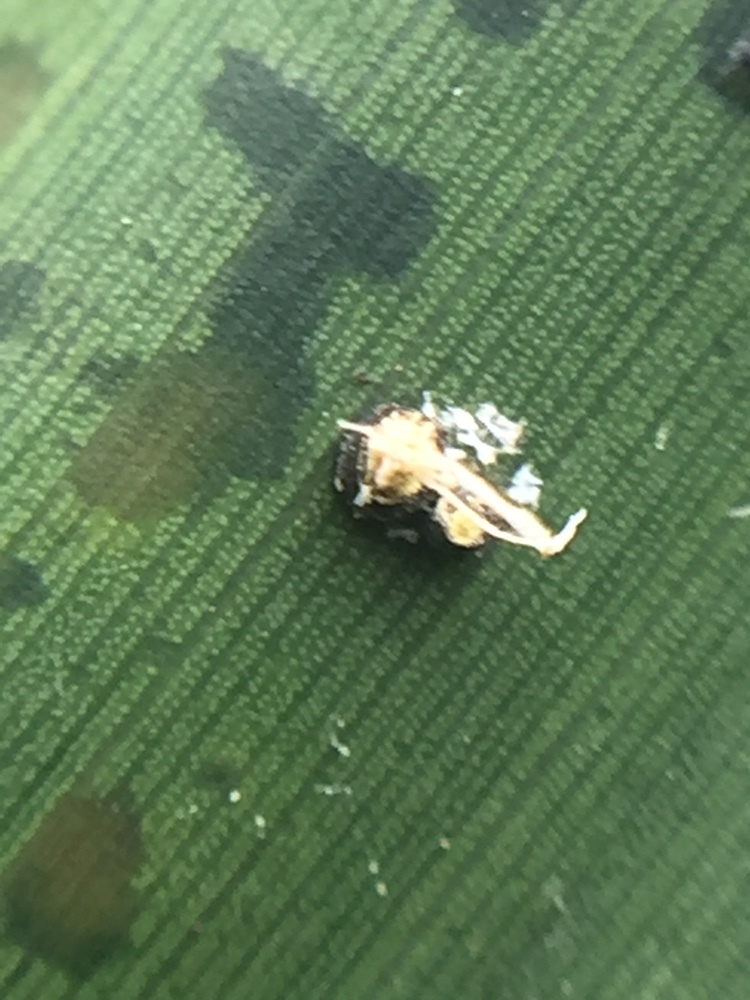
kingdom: Fungi
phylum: Basidiomycota
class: Exobasidiomycetes
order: Exobasidiales
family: Graphiolaceae
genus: Graphiola
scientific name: Graphiola phoenicis
